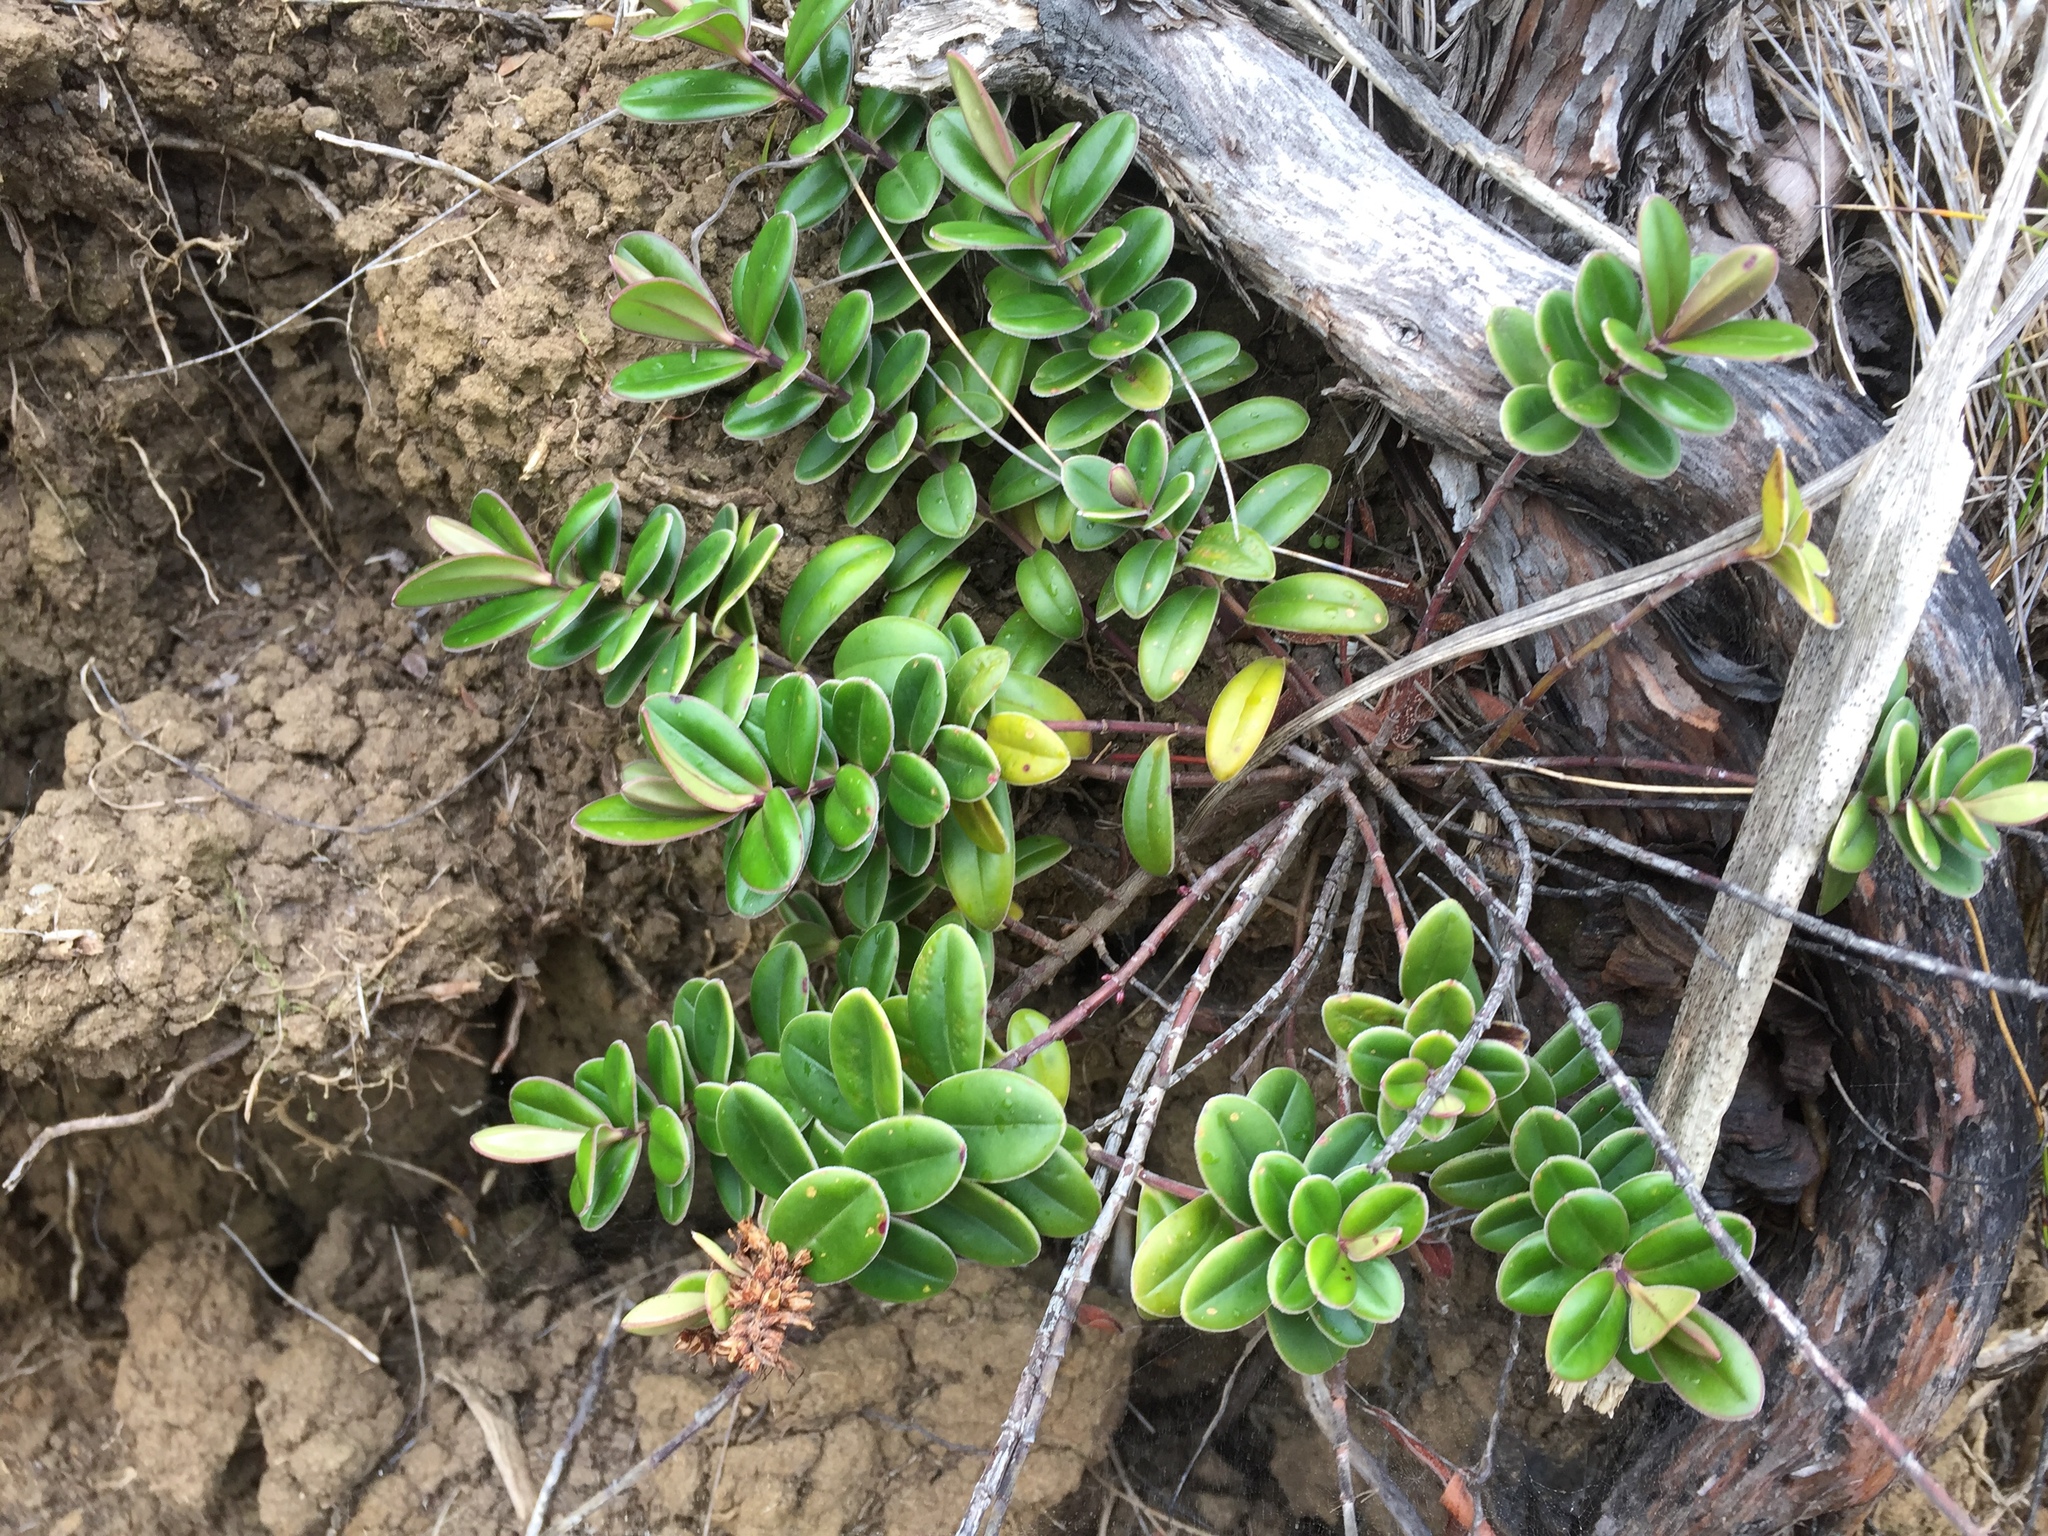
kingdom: Plantae
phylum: Tracheophyta
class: Magnoliopsida
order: Lamiales
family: Plantaginaceae
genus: Veronica
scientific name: Veronica obtusata
